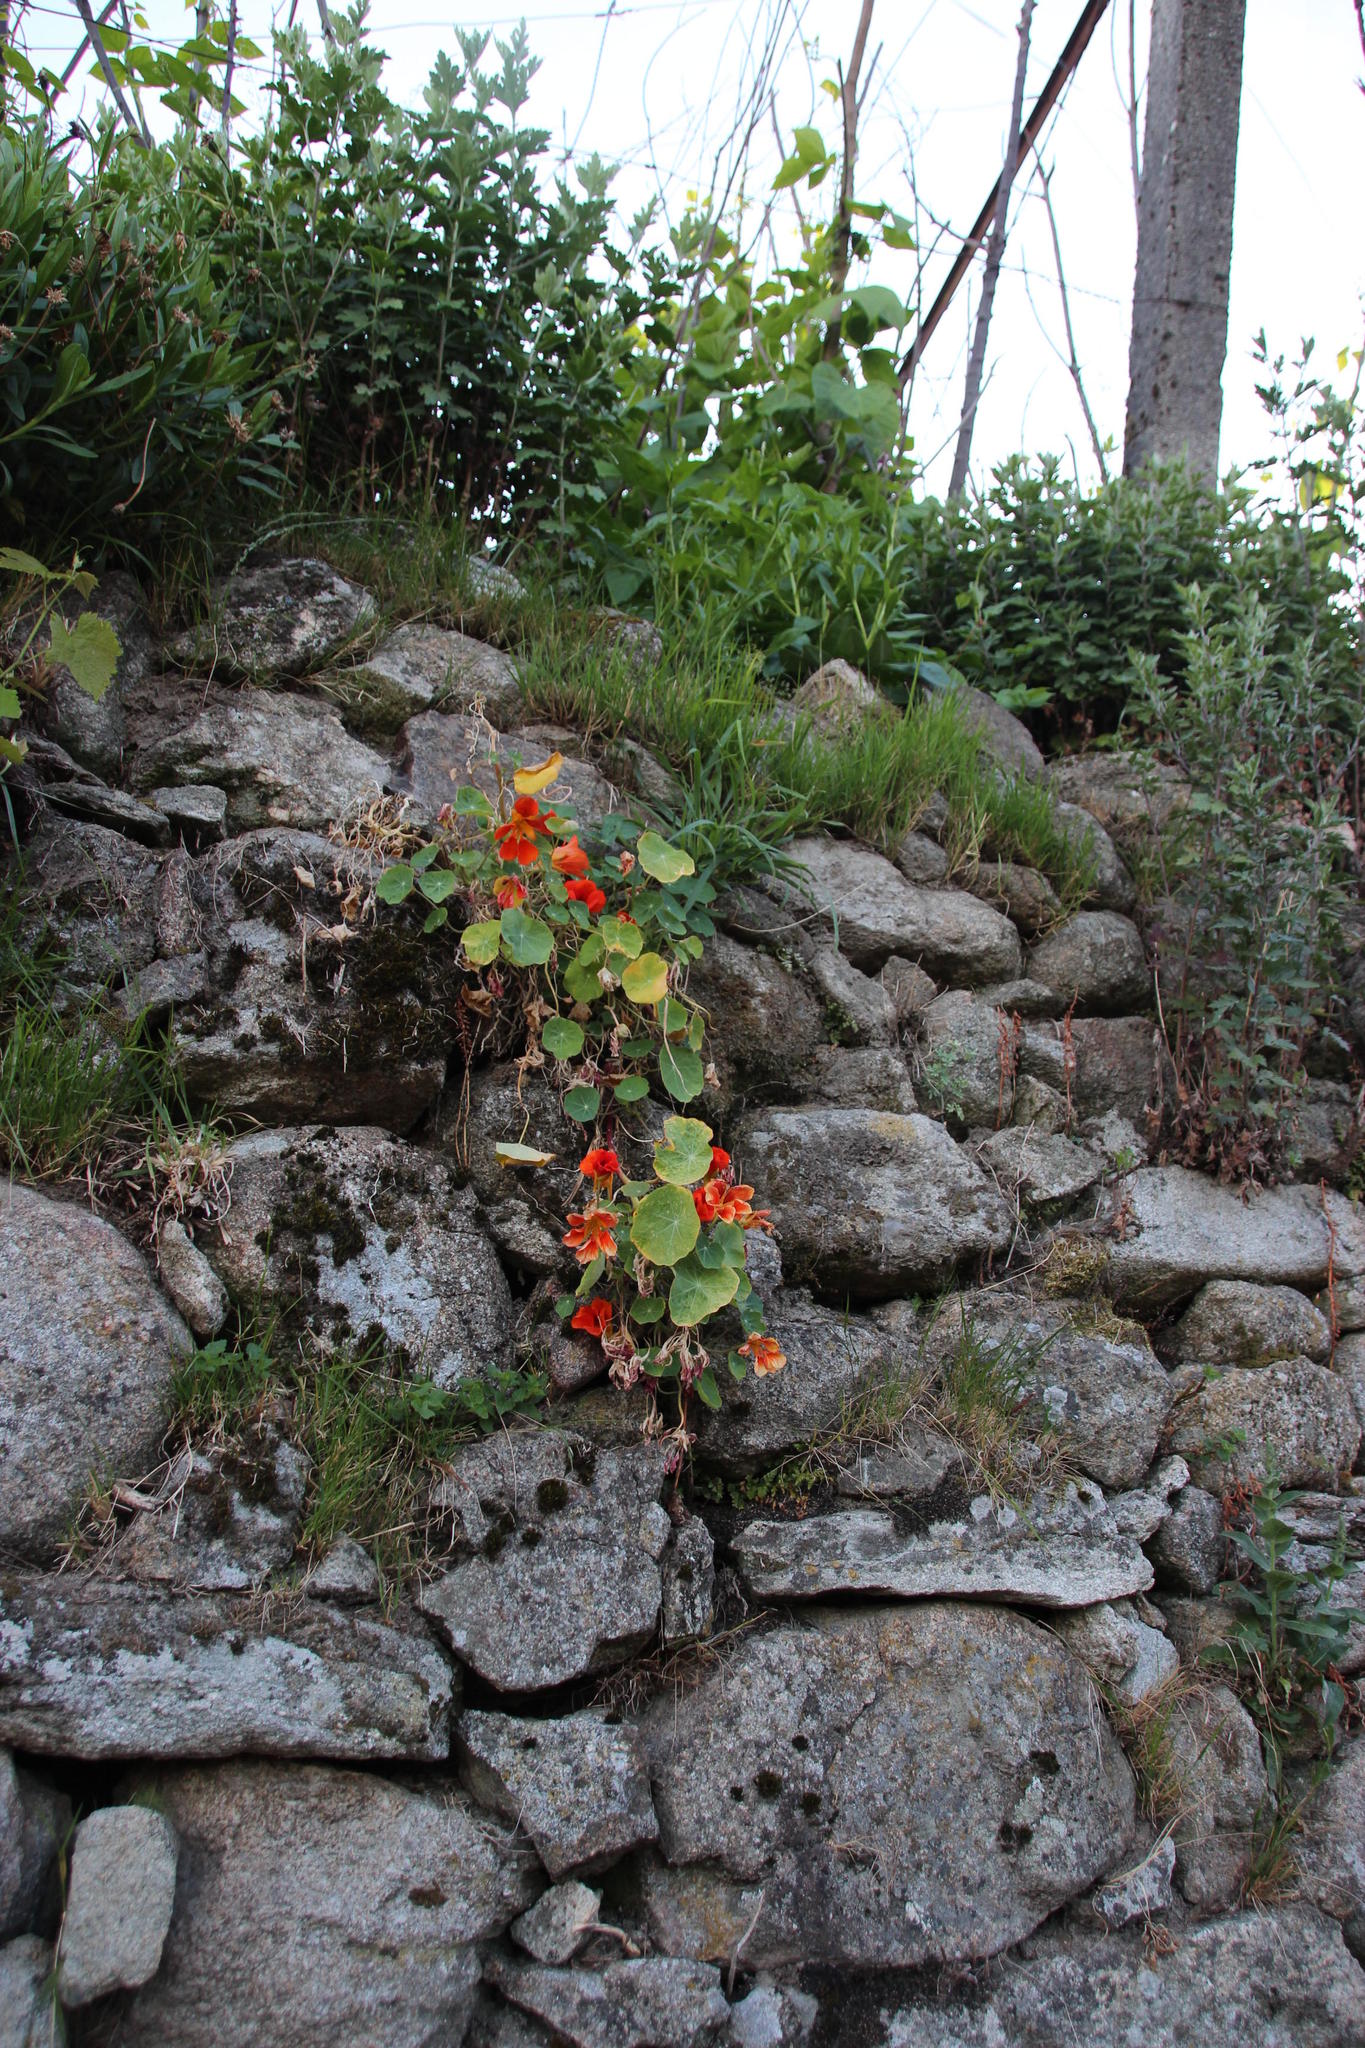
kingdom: Plantae
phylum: Tracheophyta
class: Magnoliopsida
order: Brassicales
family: Tropaeolaceae
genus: Tropaeolum
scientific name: Tropaeolum majus
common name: Nasturtium
